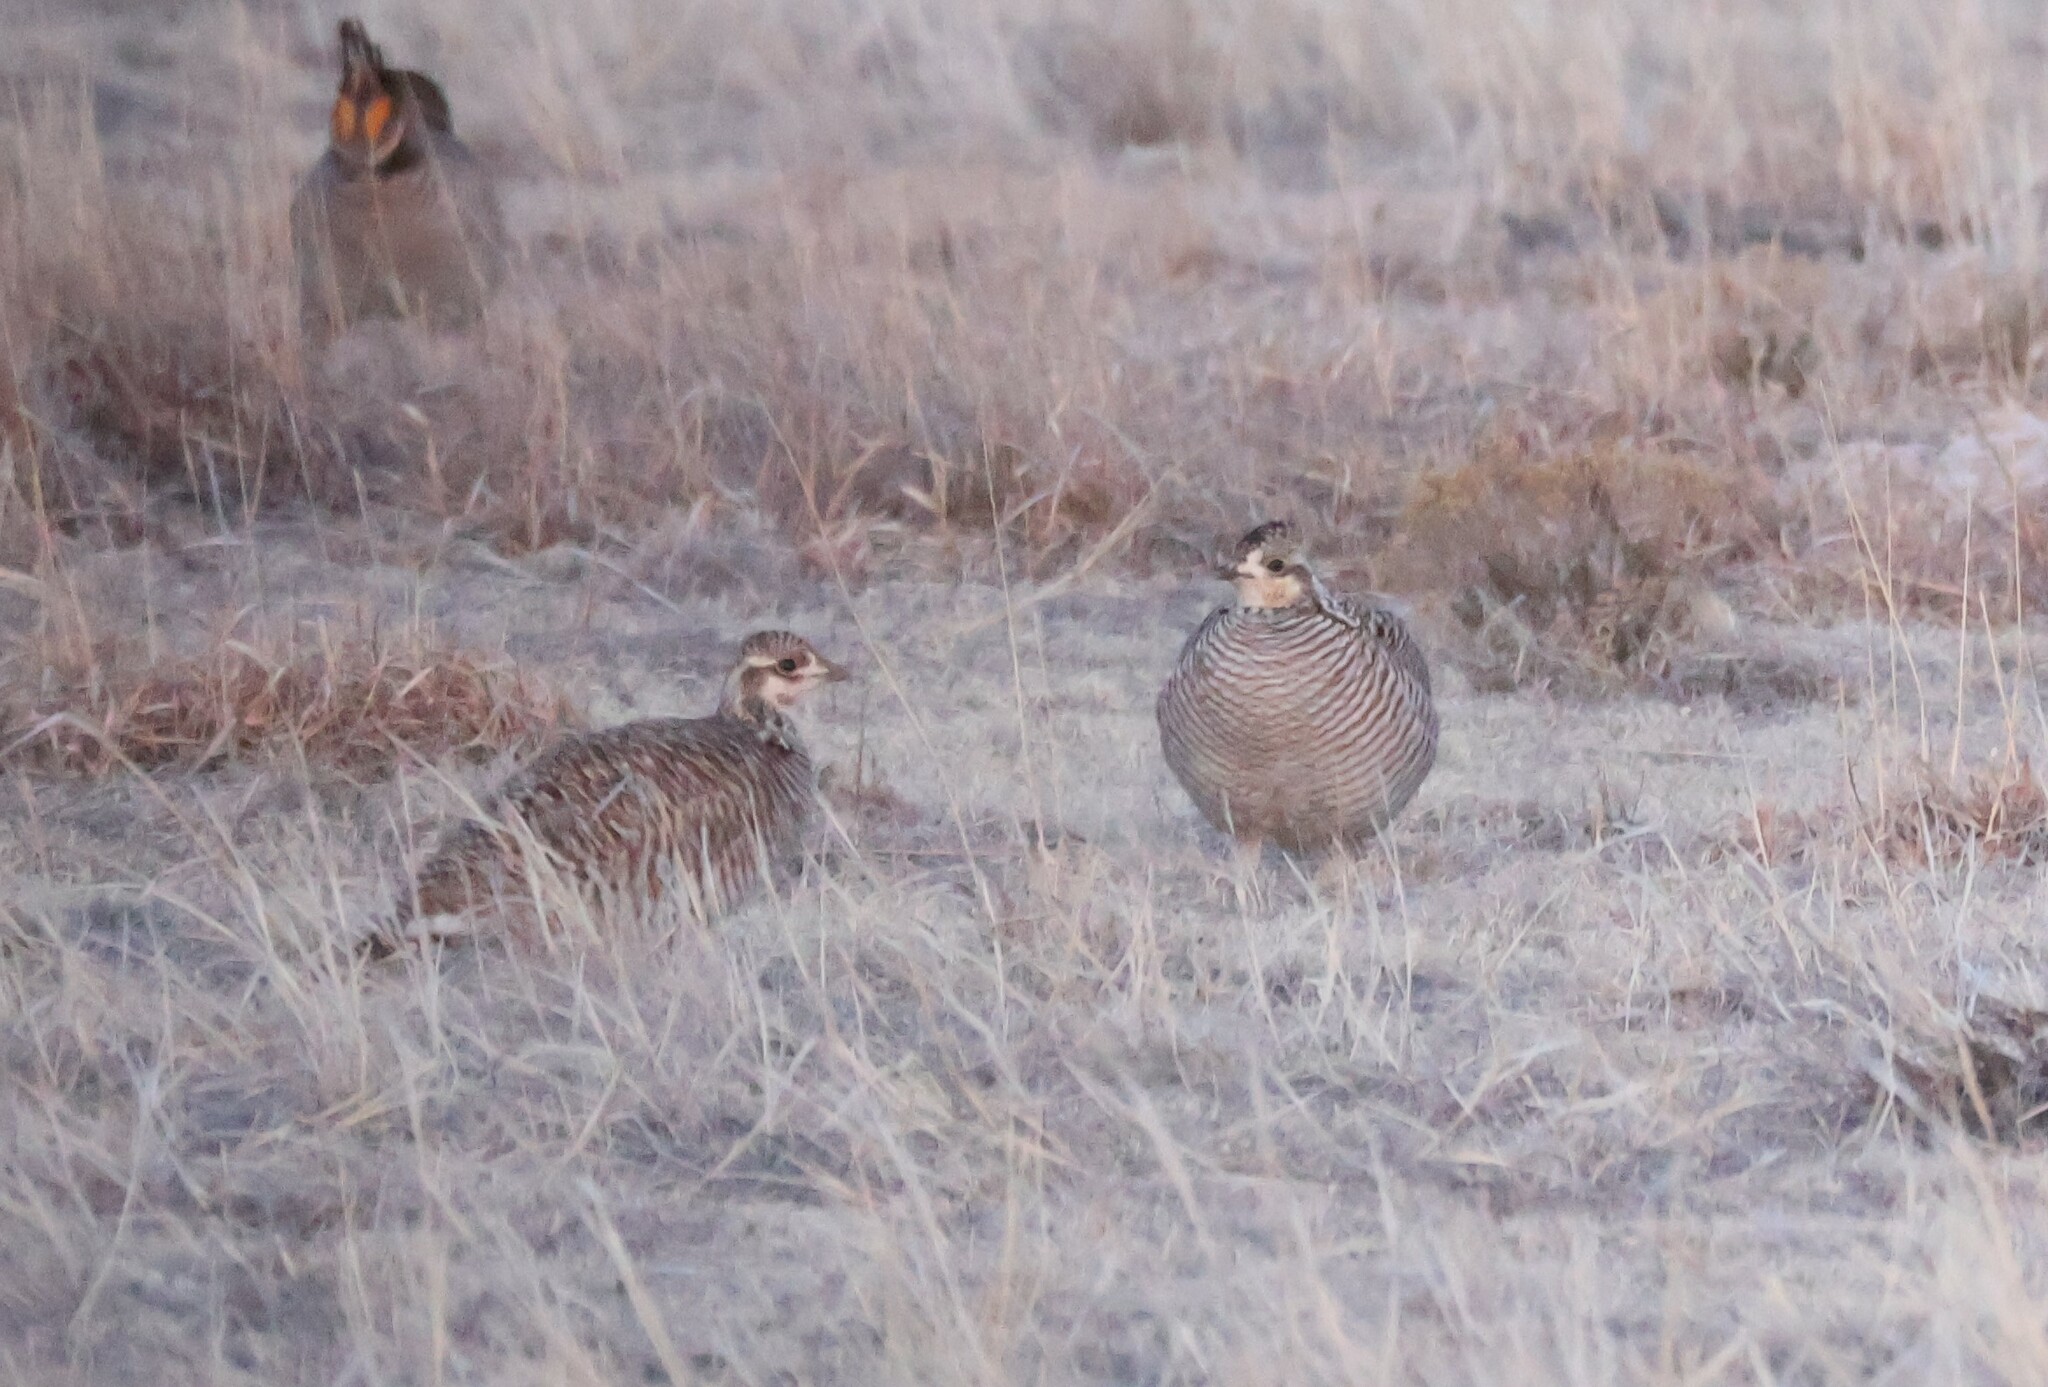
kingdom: Animalia
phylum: Chordata
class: Aves
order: Galliformes
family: Phasianidae
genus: Tympanuchus
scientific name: Tympanuchus pallidicinctus
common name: Lesser prairie chicken
